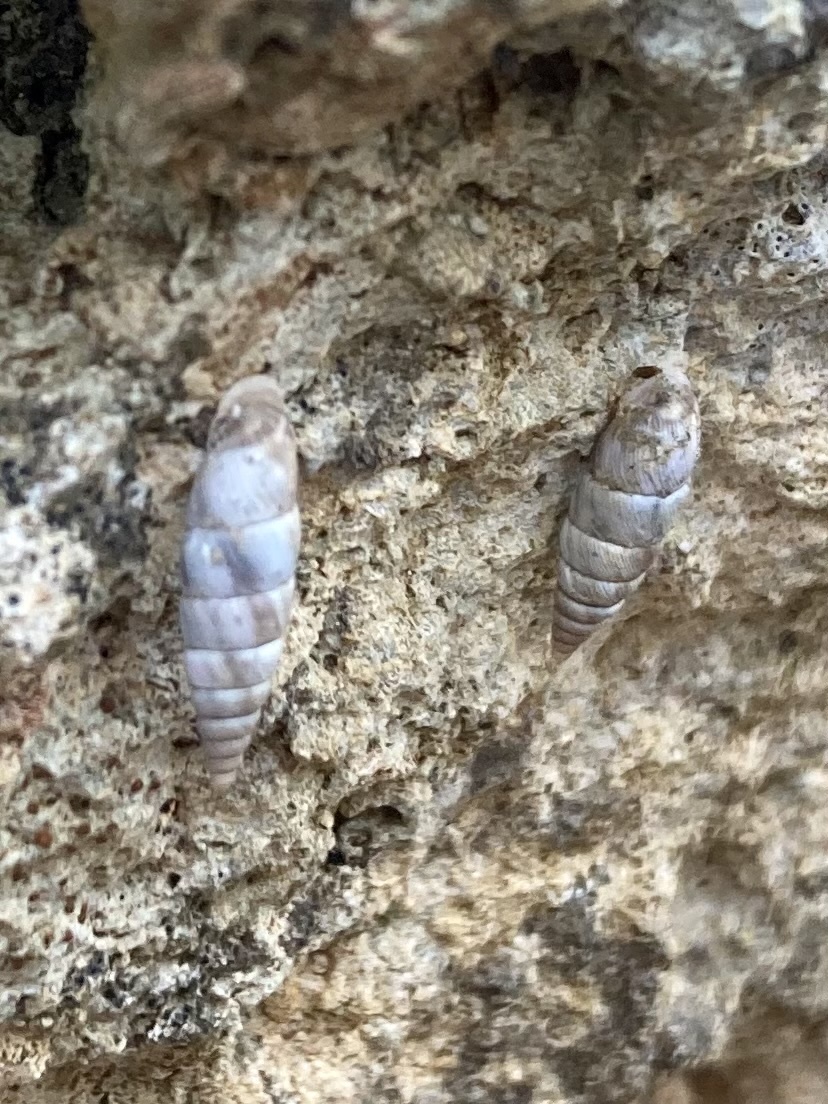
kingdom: Animalia
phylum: Mollusca
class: Gastropoda
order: Stylommatophora
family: Chondrinidae
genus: Solatopupa
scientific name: Solatopupa juliana
